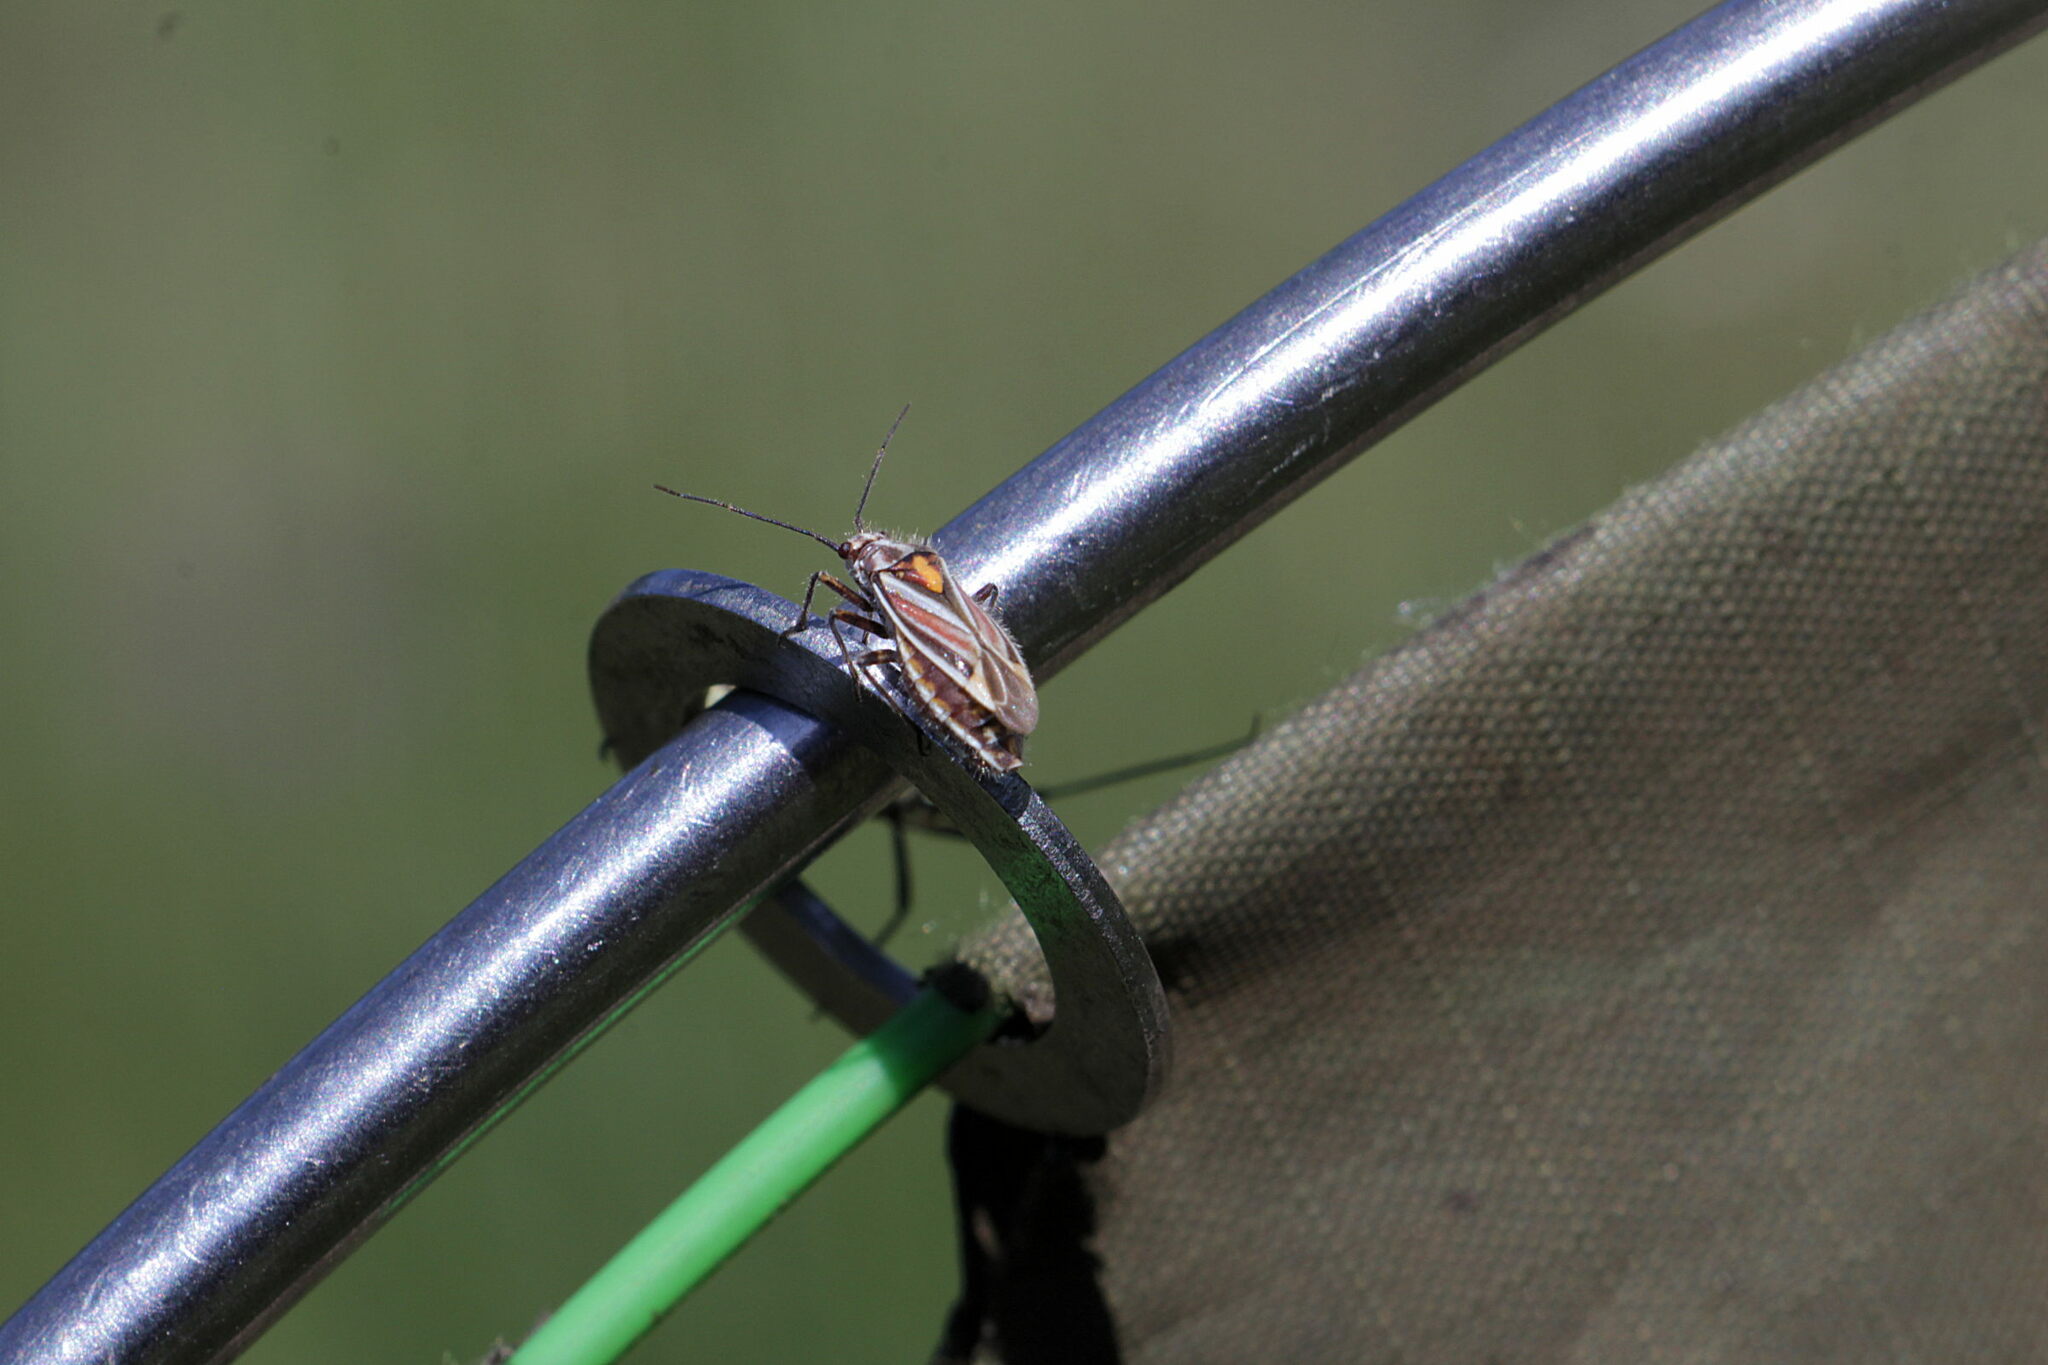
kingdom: Animalia
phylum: Arthropoda
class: Insecta
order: Hemiptera
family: Miridae
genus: Horistus
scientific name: Horistus orientalis
